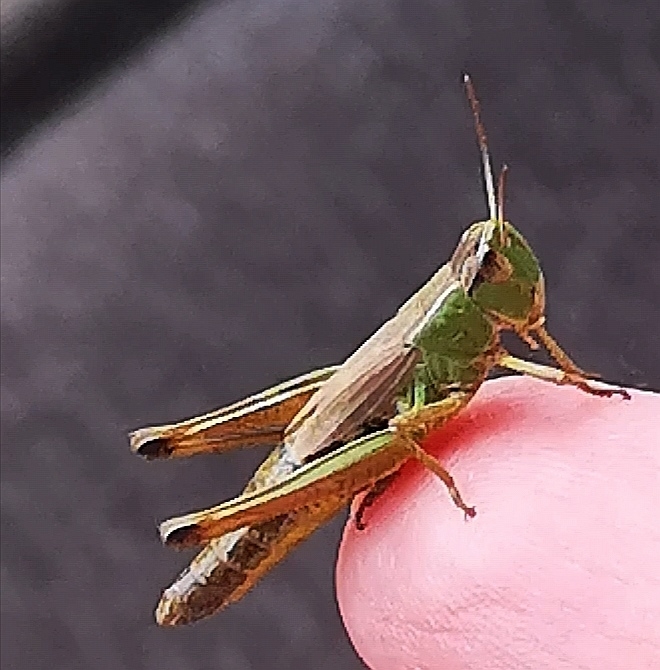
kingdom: Animalia
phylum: Arthropoda
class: Insecta
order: Orthoptera
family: Acrididae
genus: Pseudochorthippus
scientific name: Pseudochorthippus parallelus
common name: Meadow grasshopper
